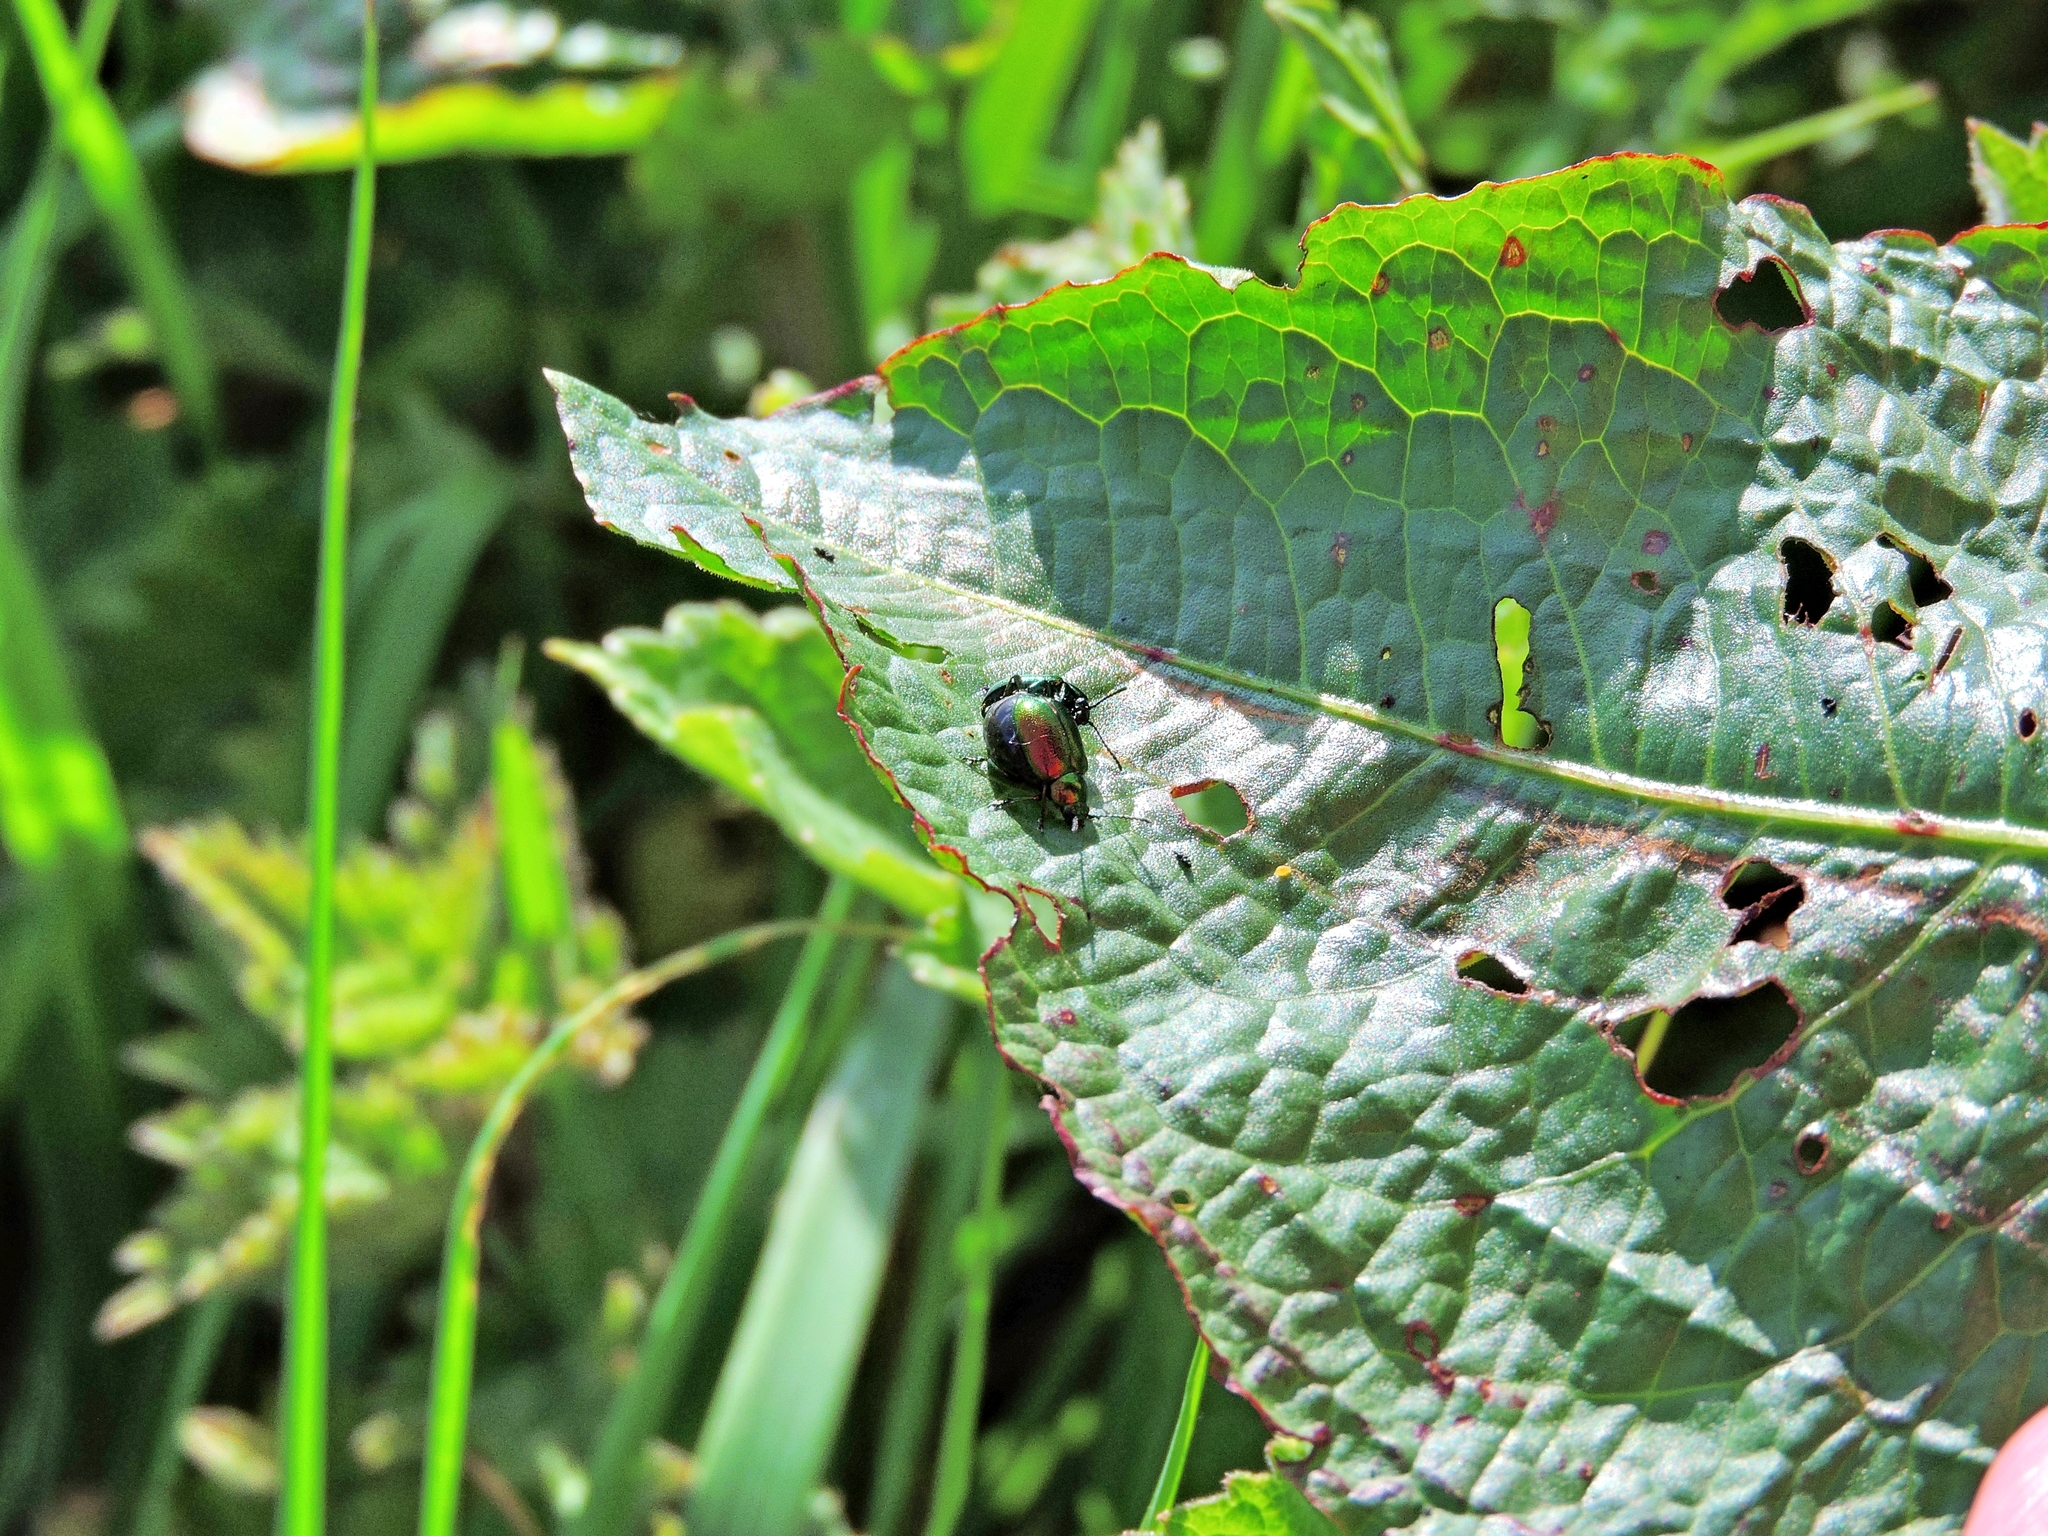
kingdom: Animalia
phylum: Arthropoda
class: Insecta
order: Coleoptera
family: Chrysomelidae
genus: Gastrophysa
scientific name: Gastrophysa viridula
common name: Green dock beetle
